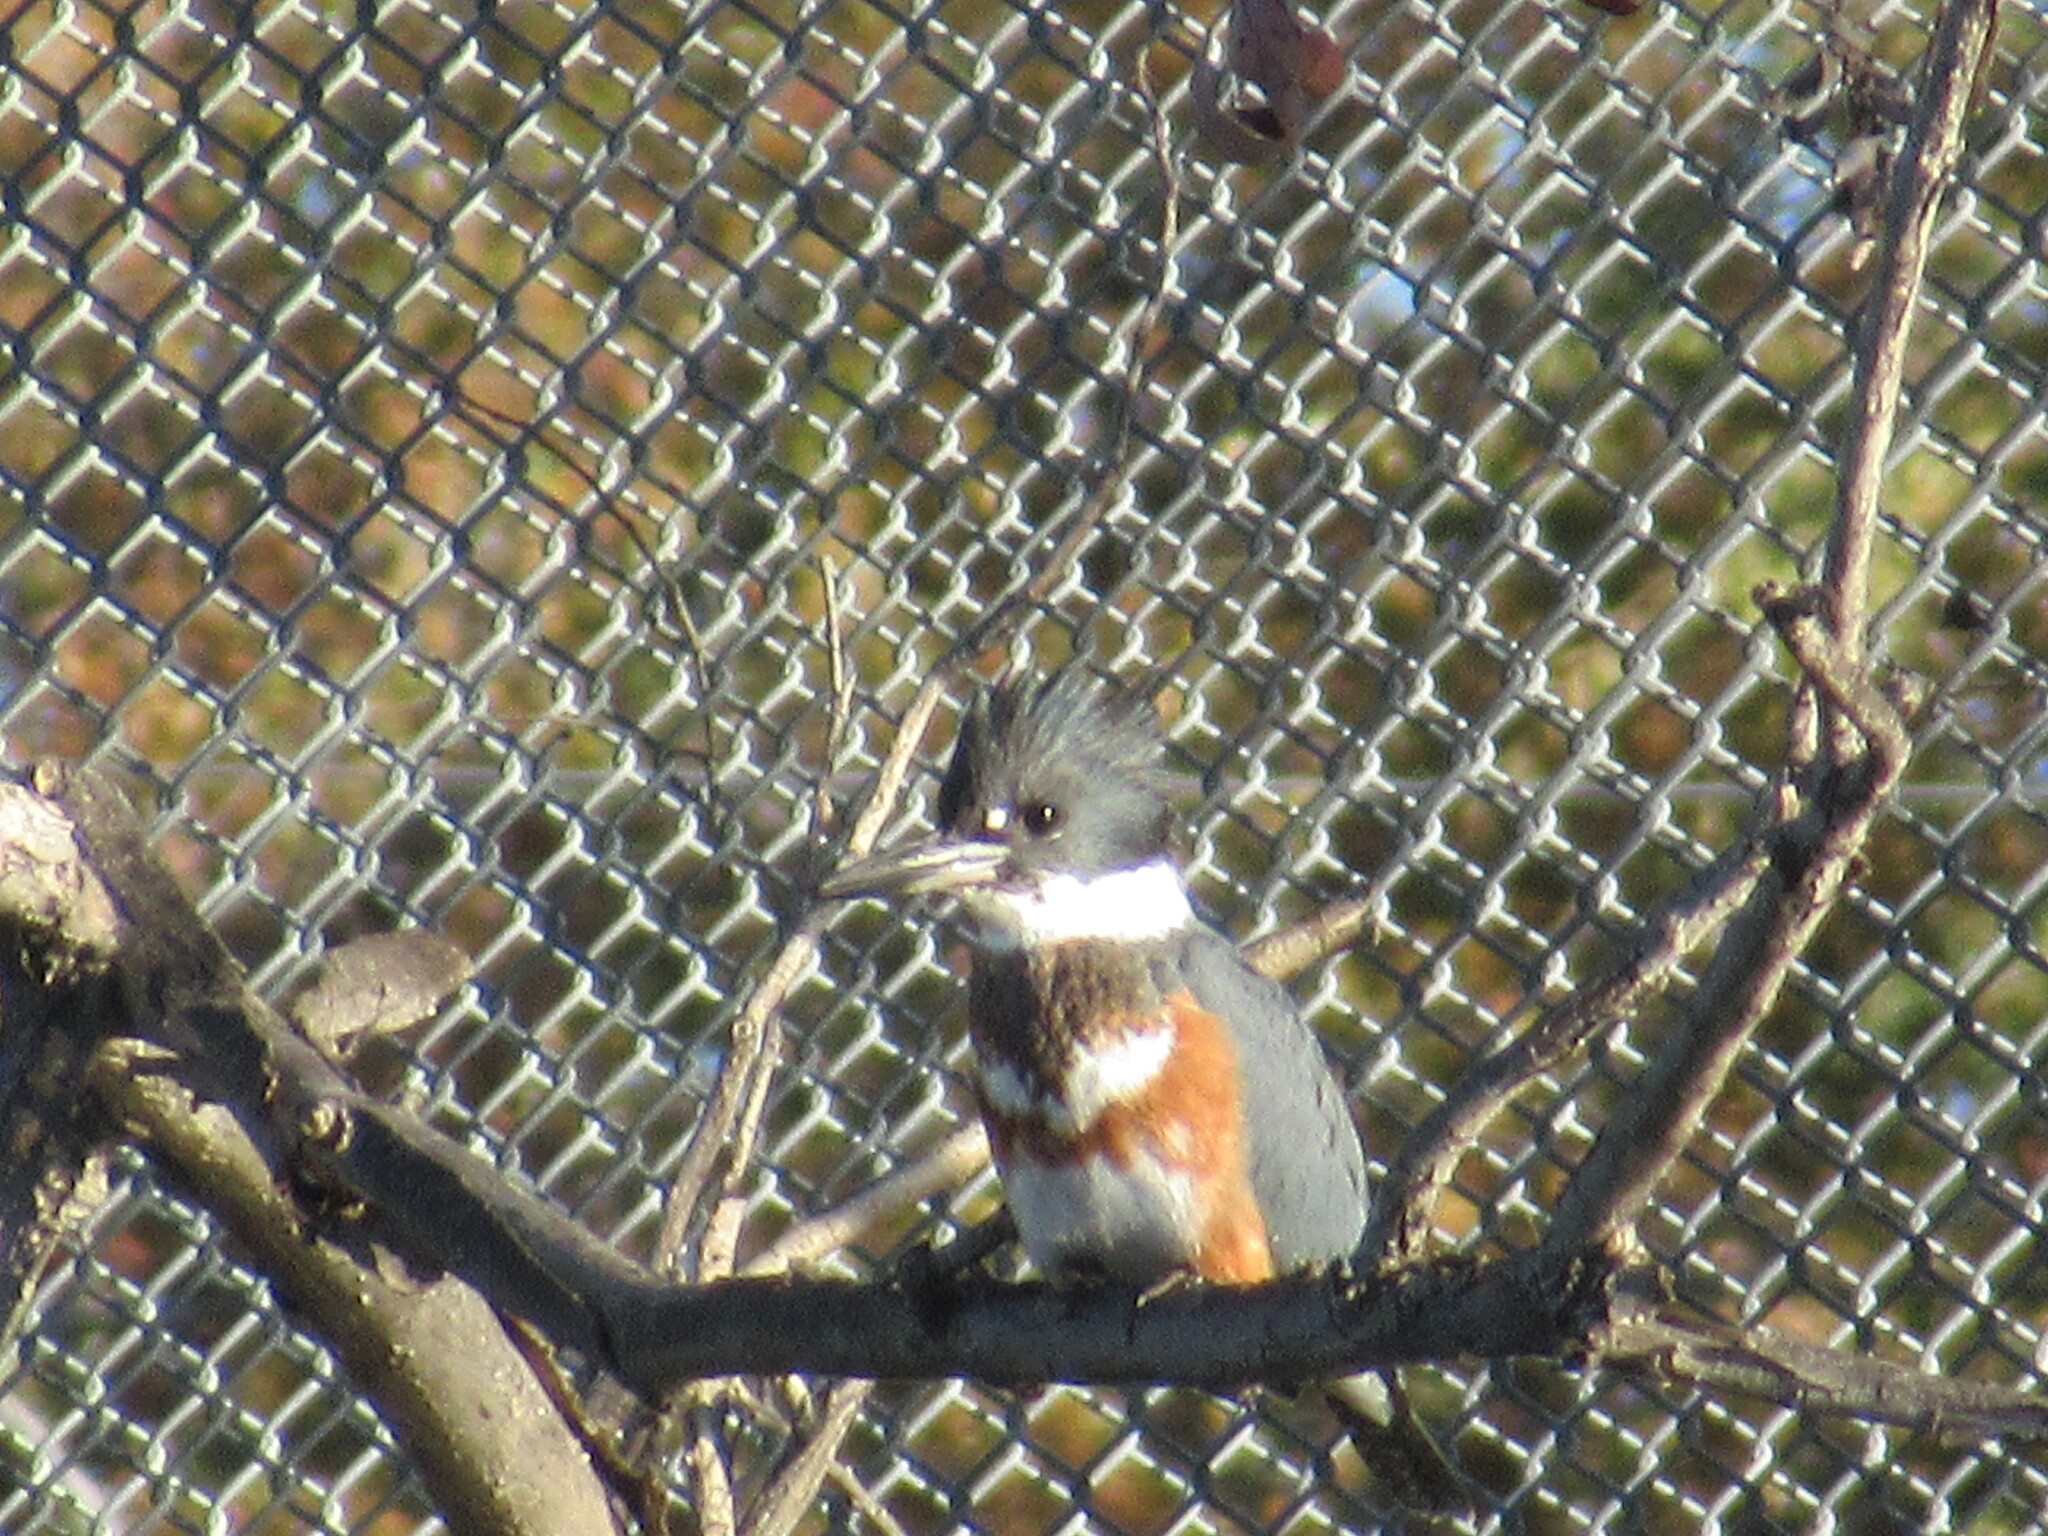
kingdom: Animalia
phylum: Chordata
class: Aves
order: Coraciiformes
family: Alcedinidae
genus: Megaceryle
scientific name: Megaceryle alcyon
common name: Belted kingfisher
